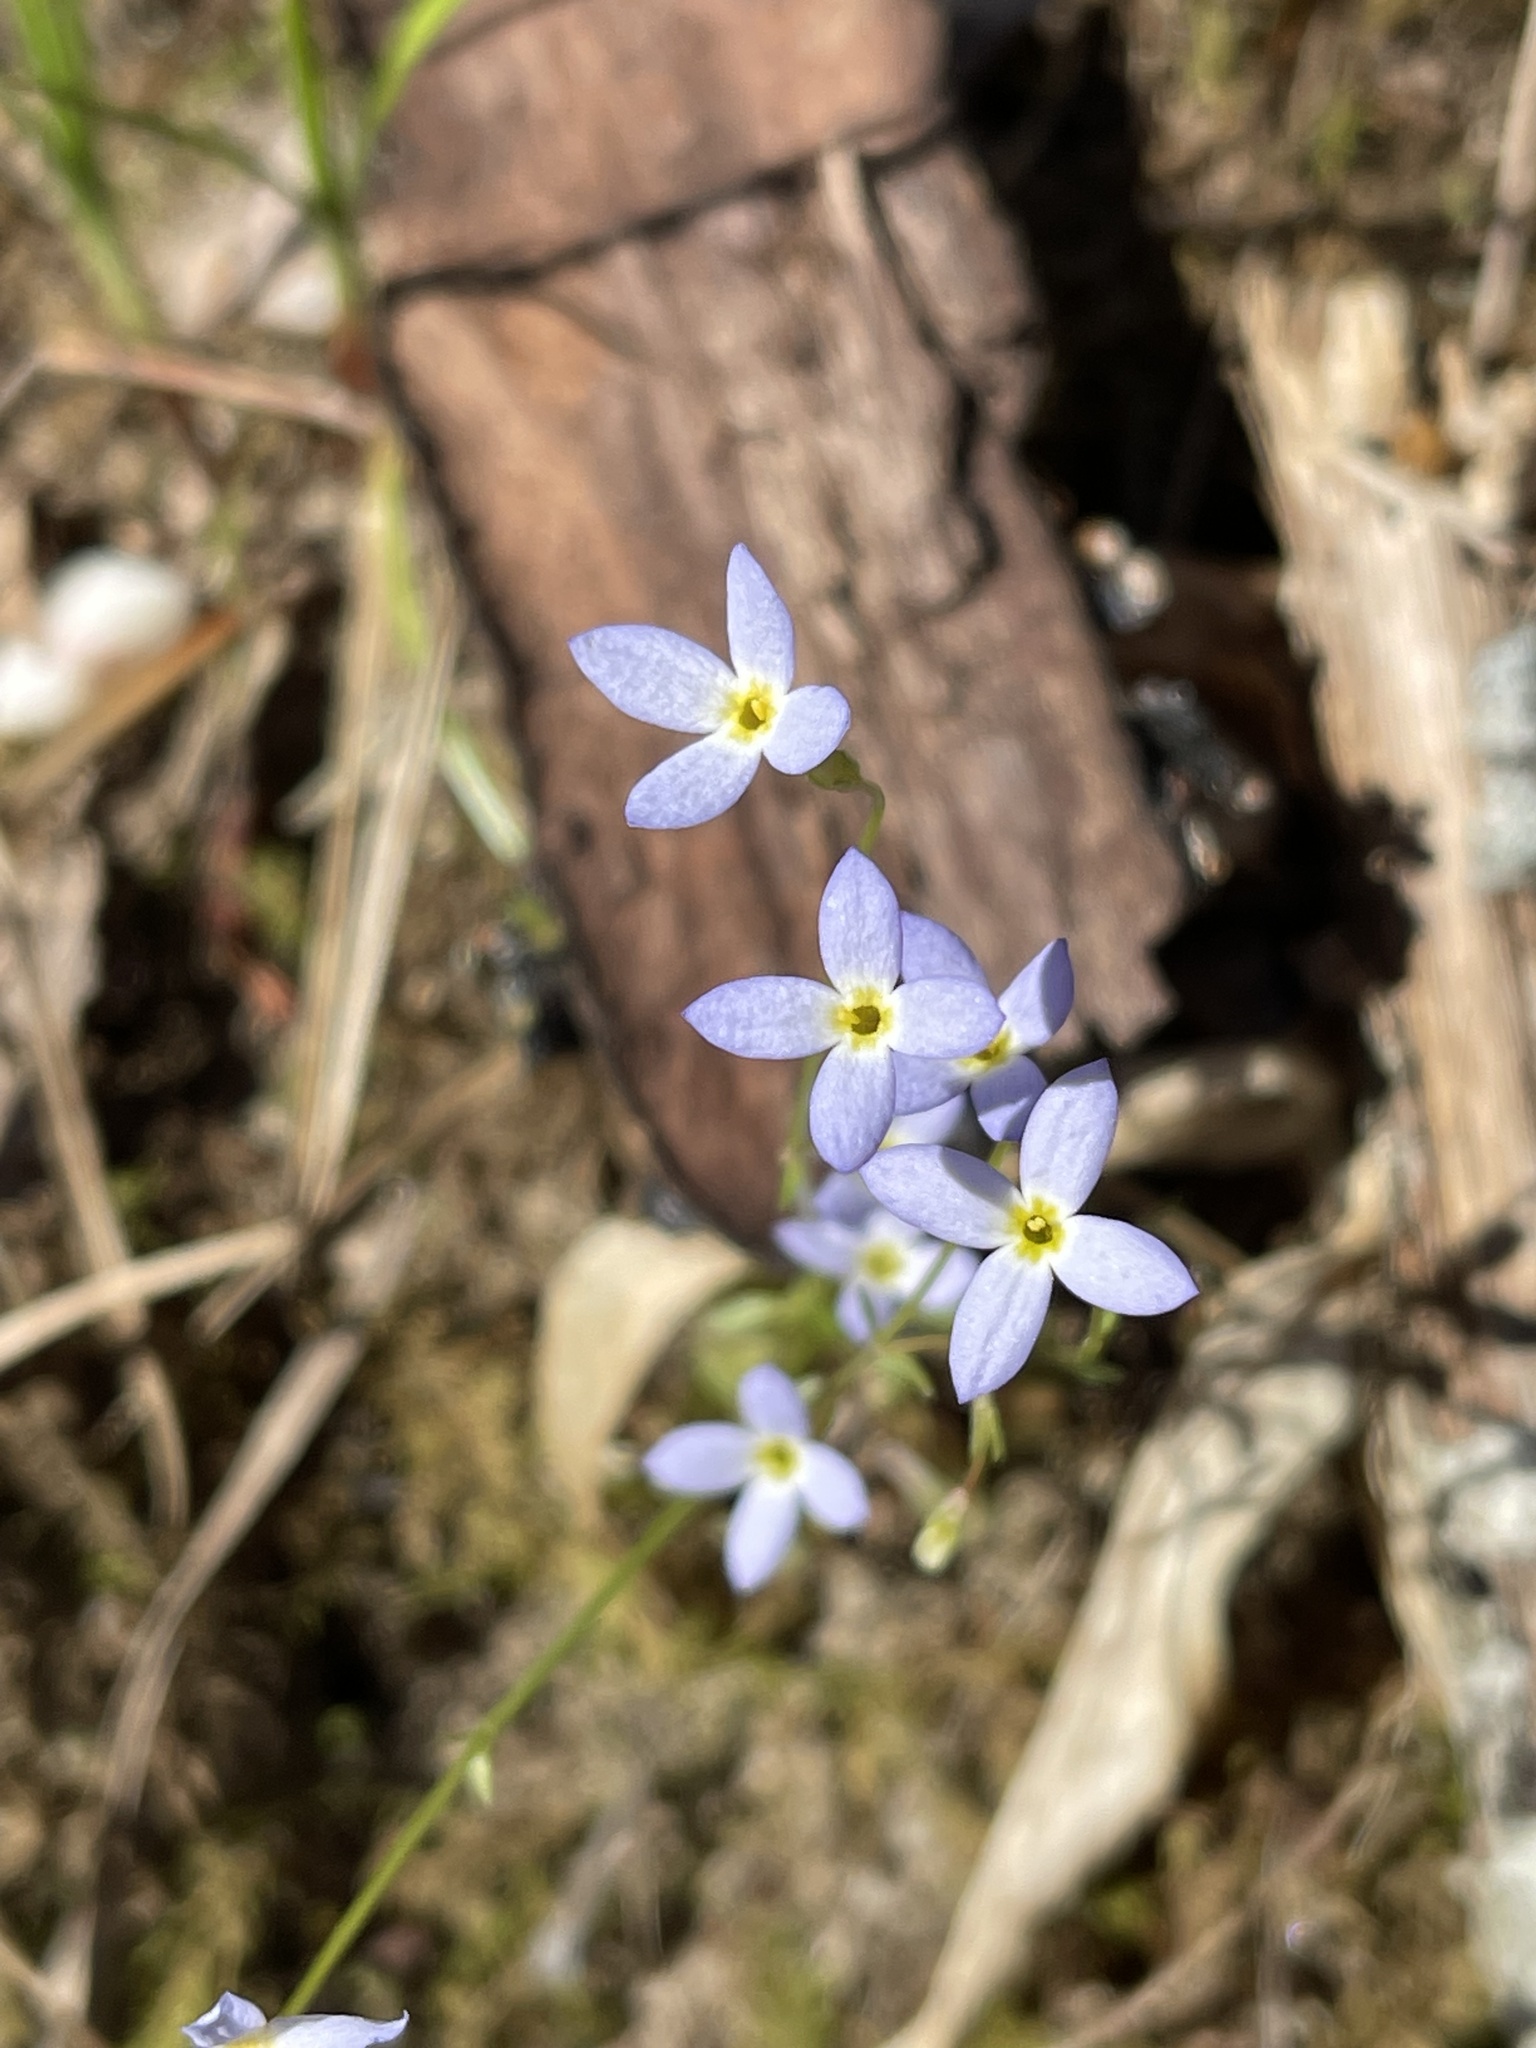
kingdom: Plantae
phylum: Tracheophyta
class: Magnoliopsida
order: Gentianales
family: Rubiaceae
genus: Houstonia
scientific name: Houstonia caerulea
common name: Bluets
